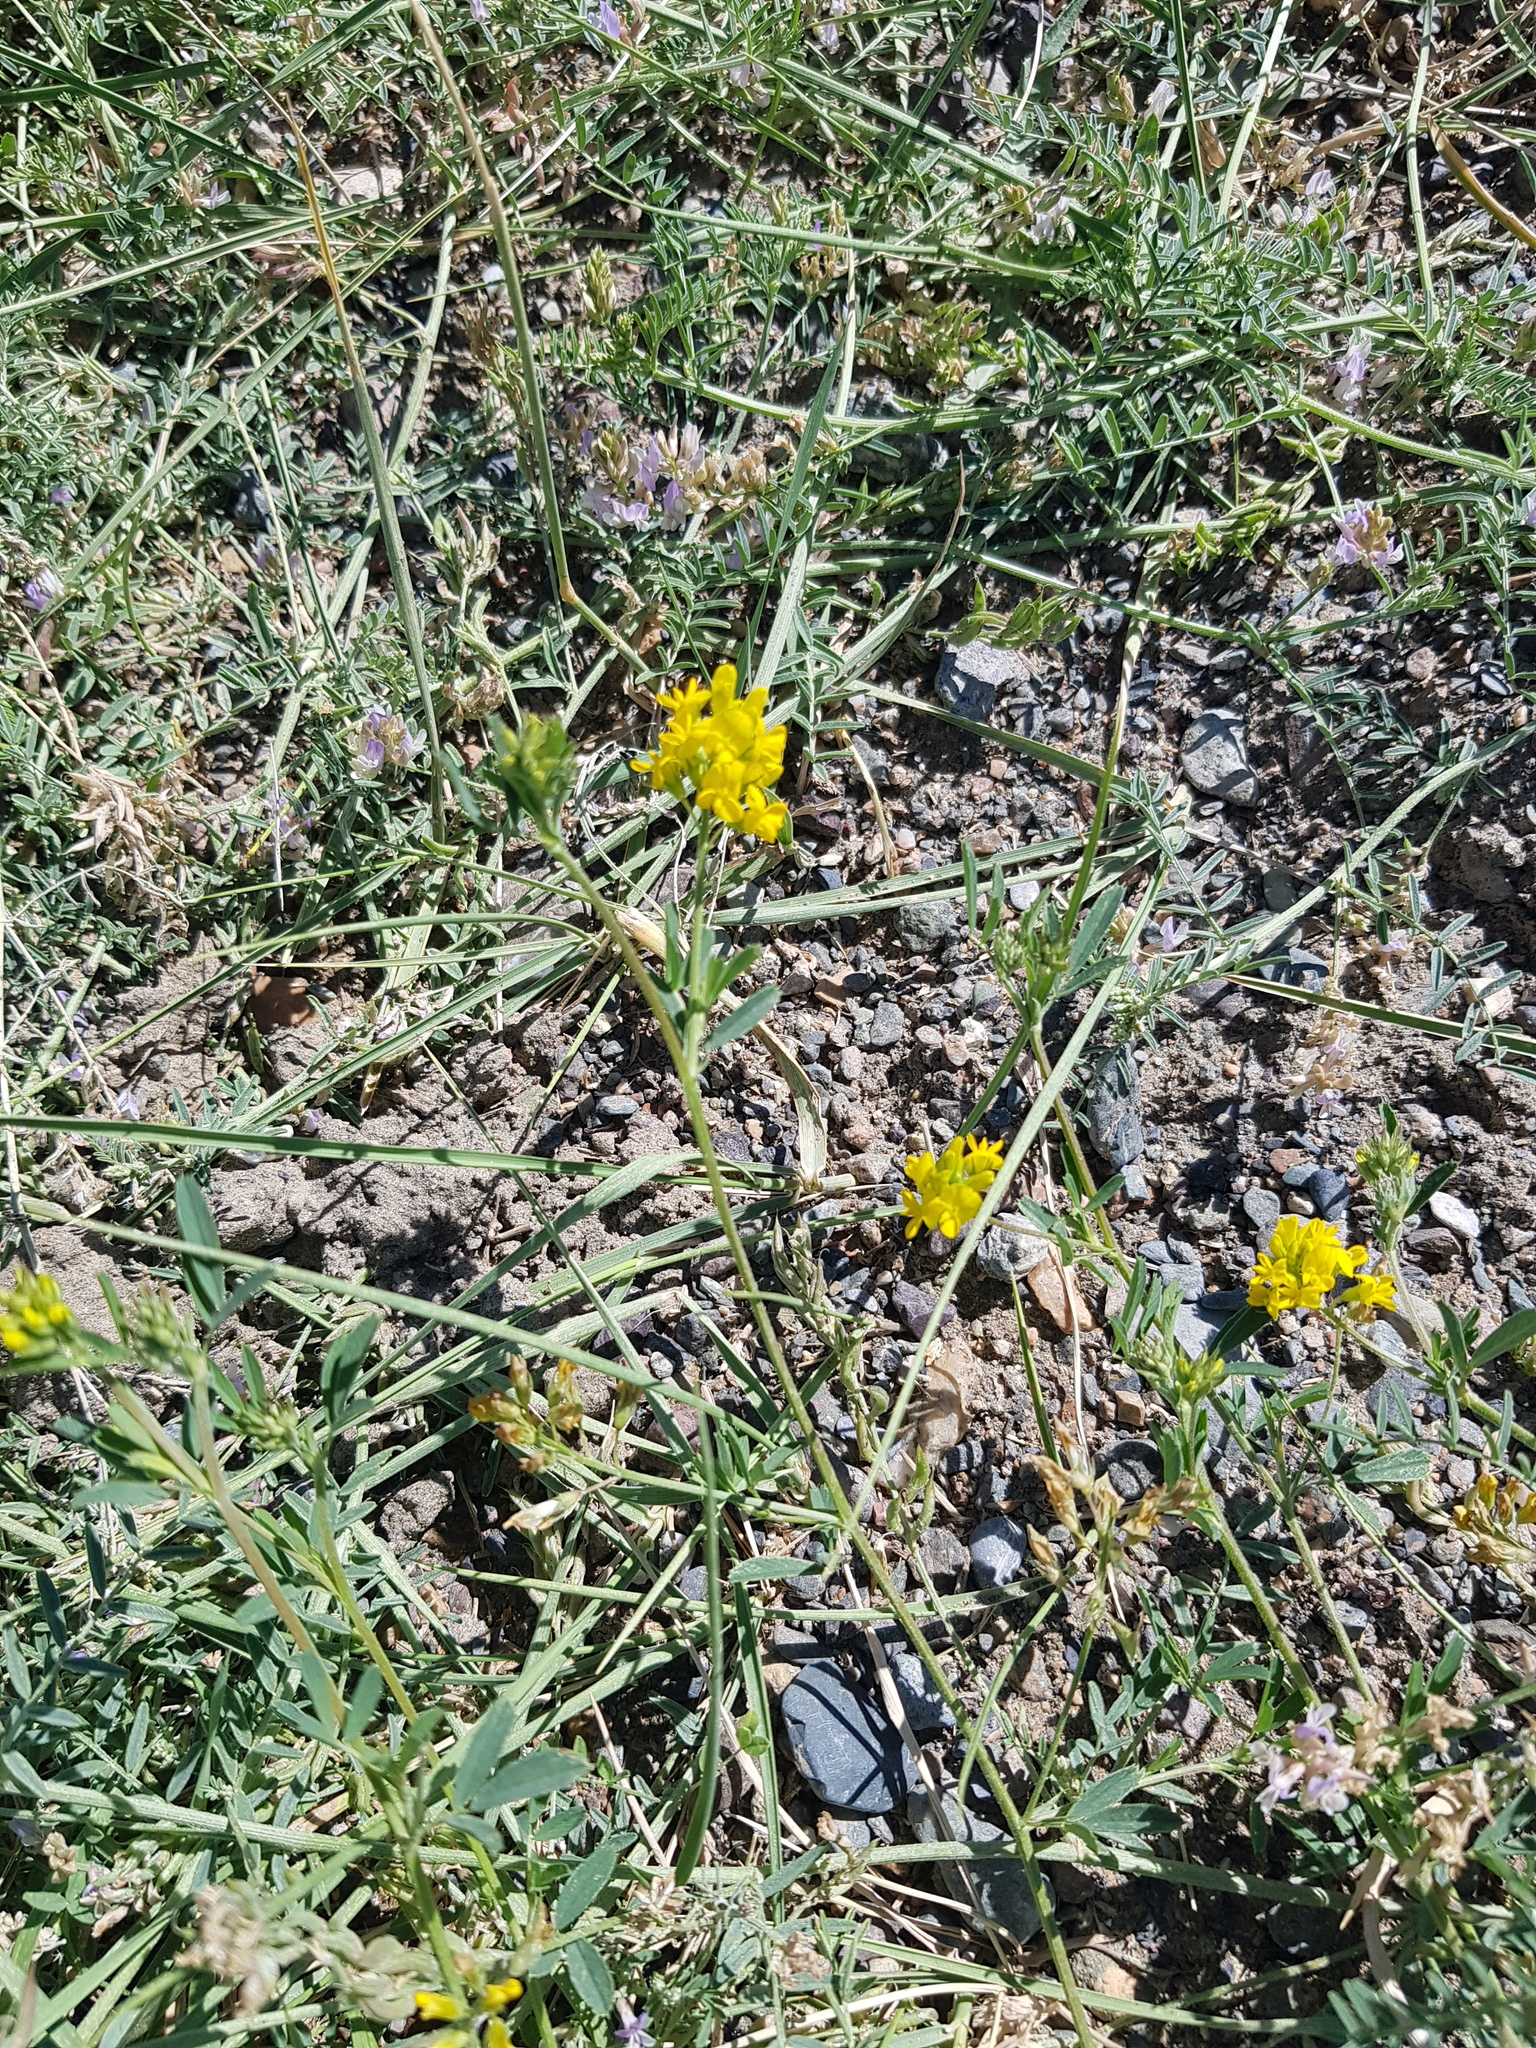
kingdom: Plantae
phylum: Tracheophyta
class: Magnoliopsida
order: Fabales
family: Fabaceae
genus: Medicago
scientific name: Medicago falcata
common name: Sickle medick
